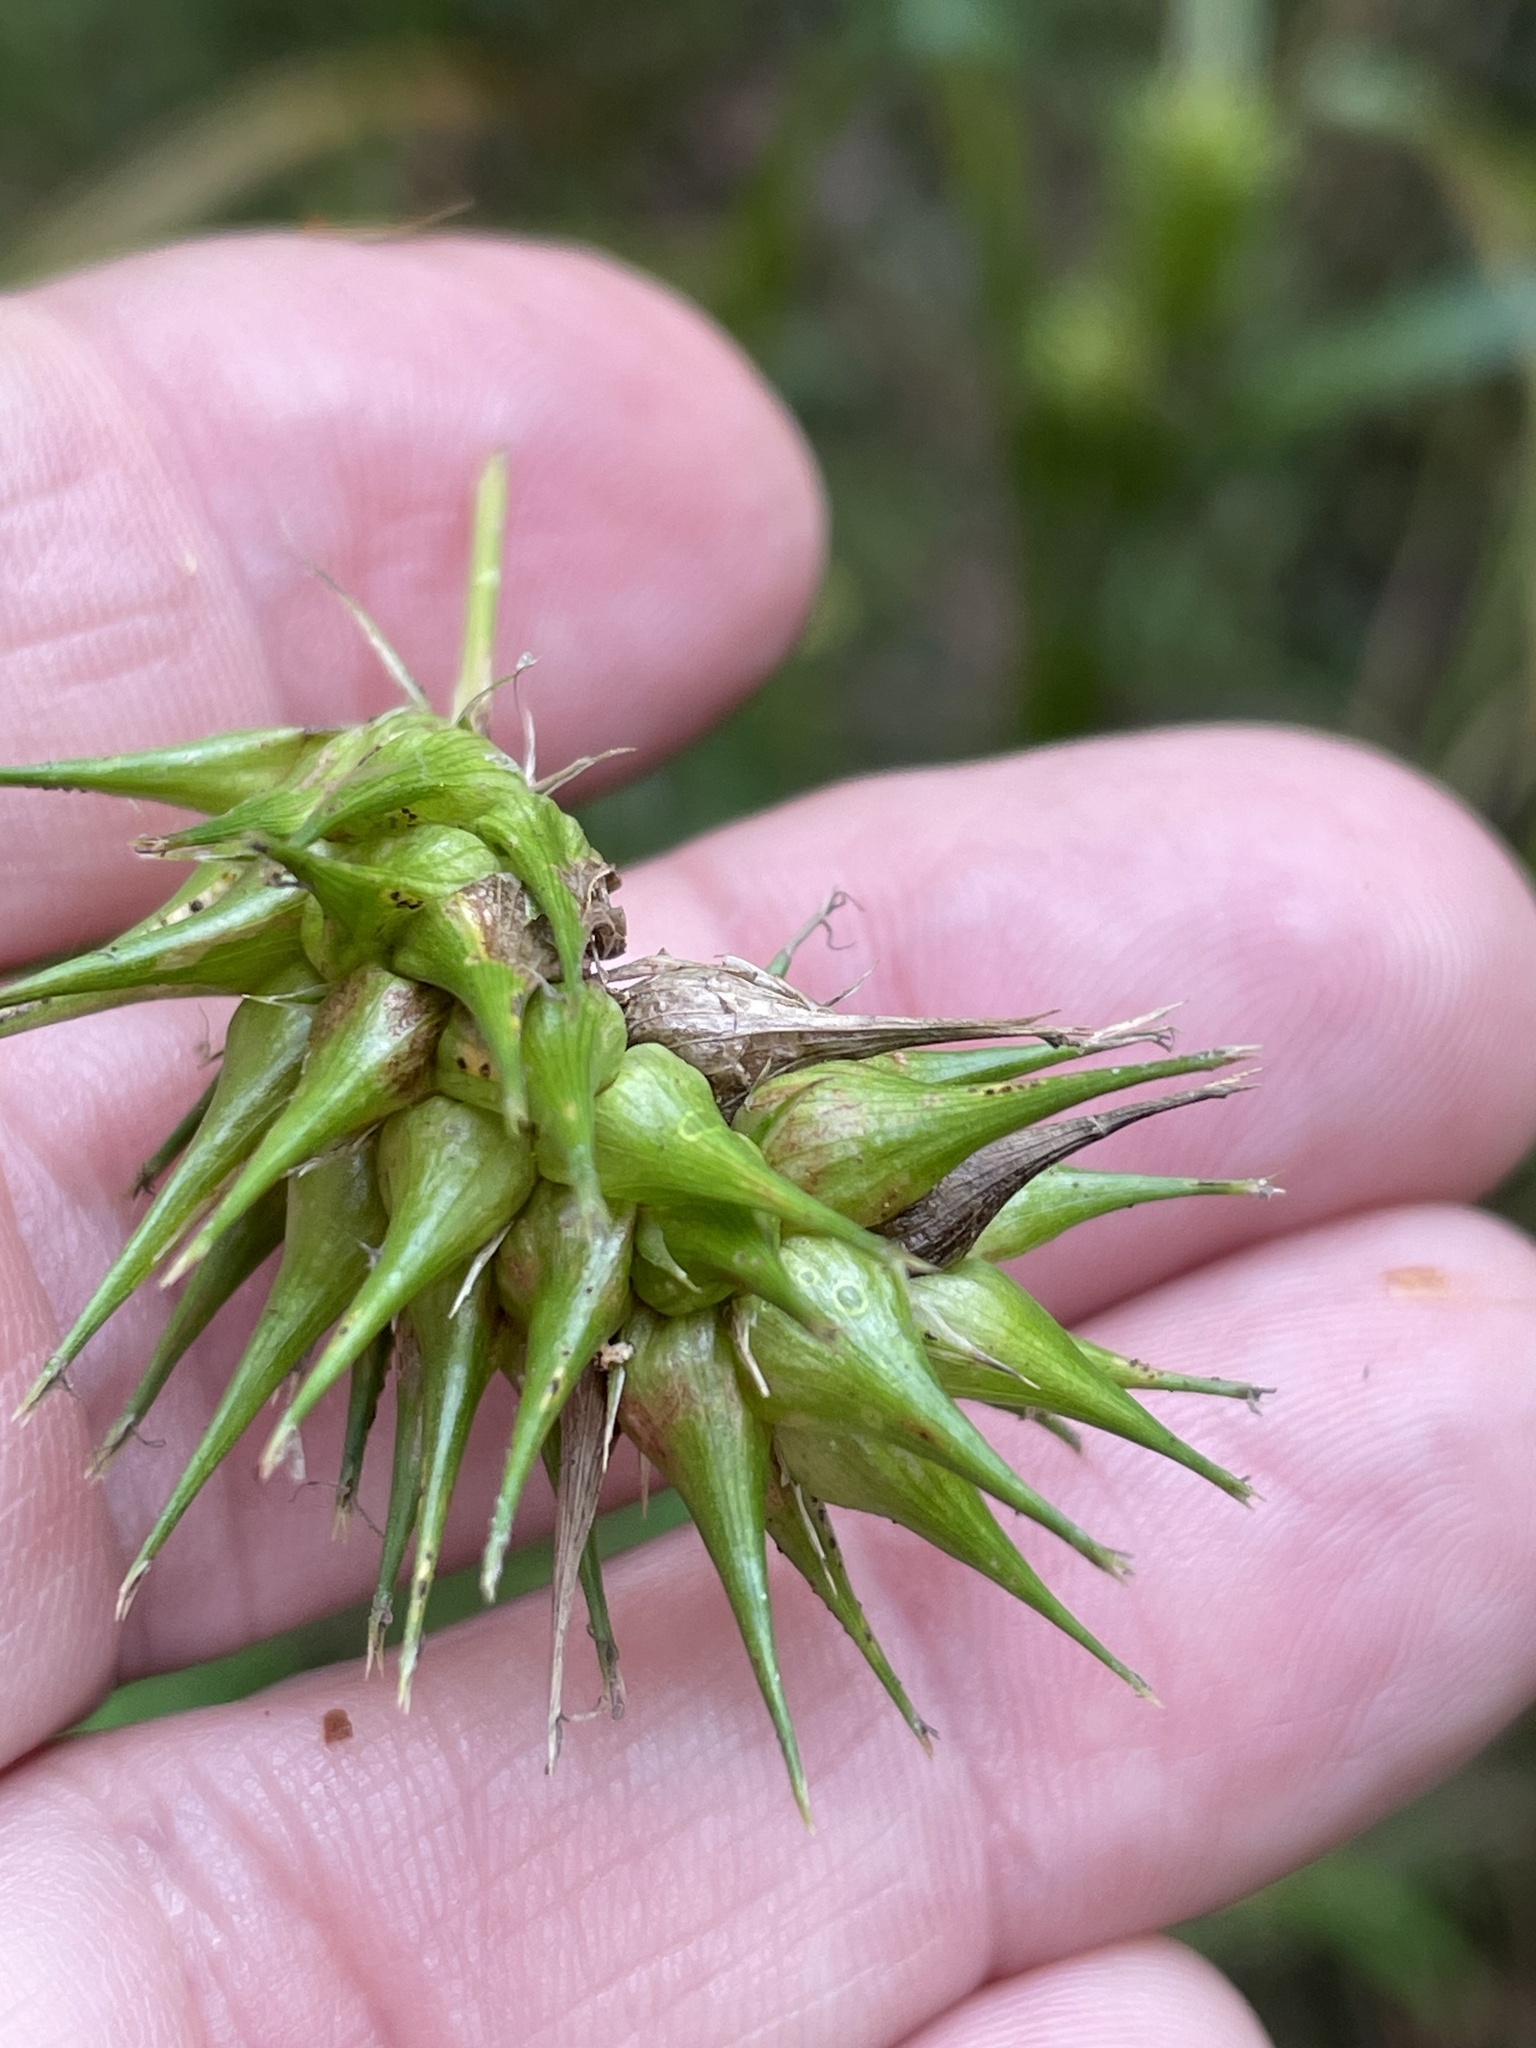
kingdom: Plantae
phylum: Tracheophyta
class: Liliopsida
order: Poales
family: Cyperaceae
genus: Carex
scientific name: Carex lupulina
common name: Hop sedge
